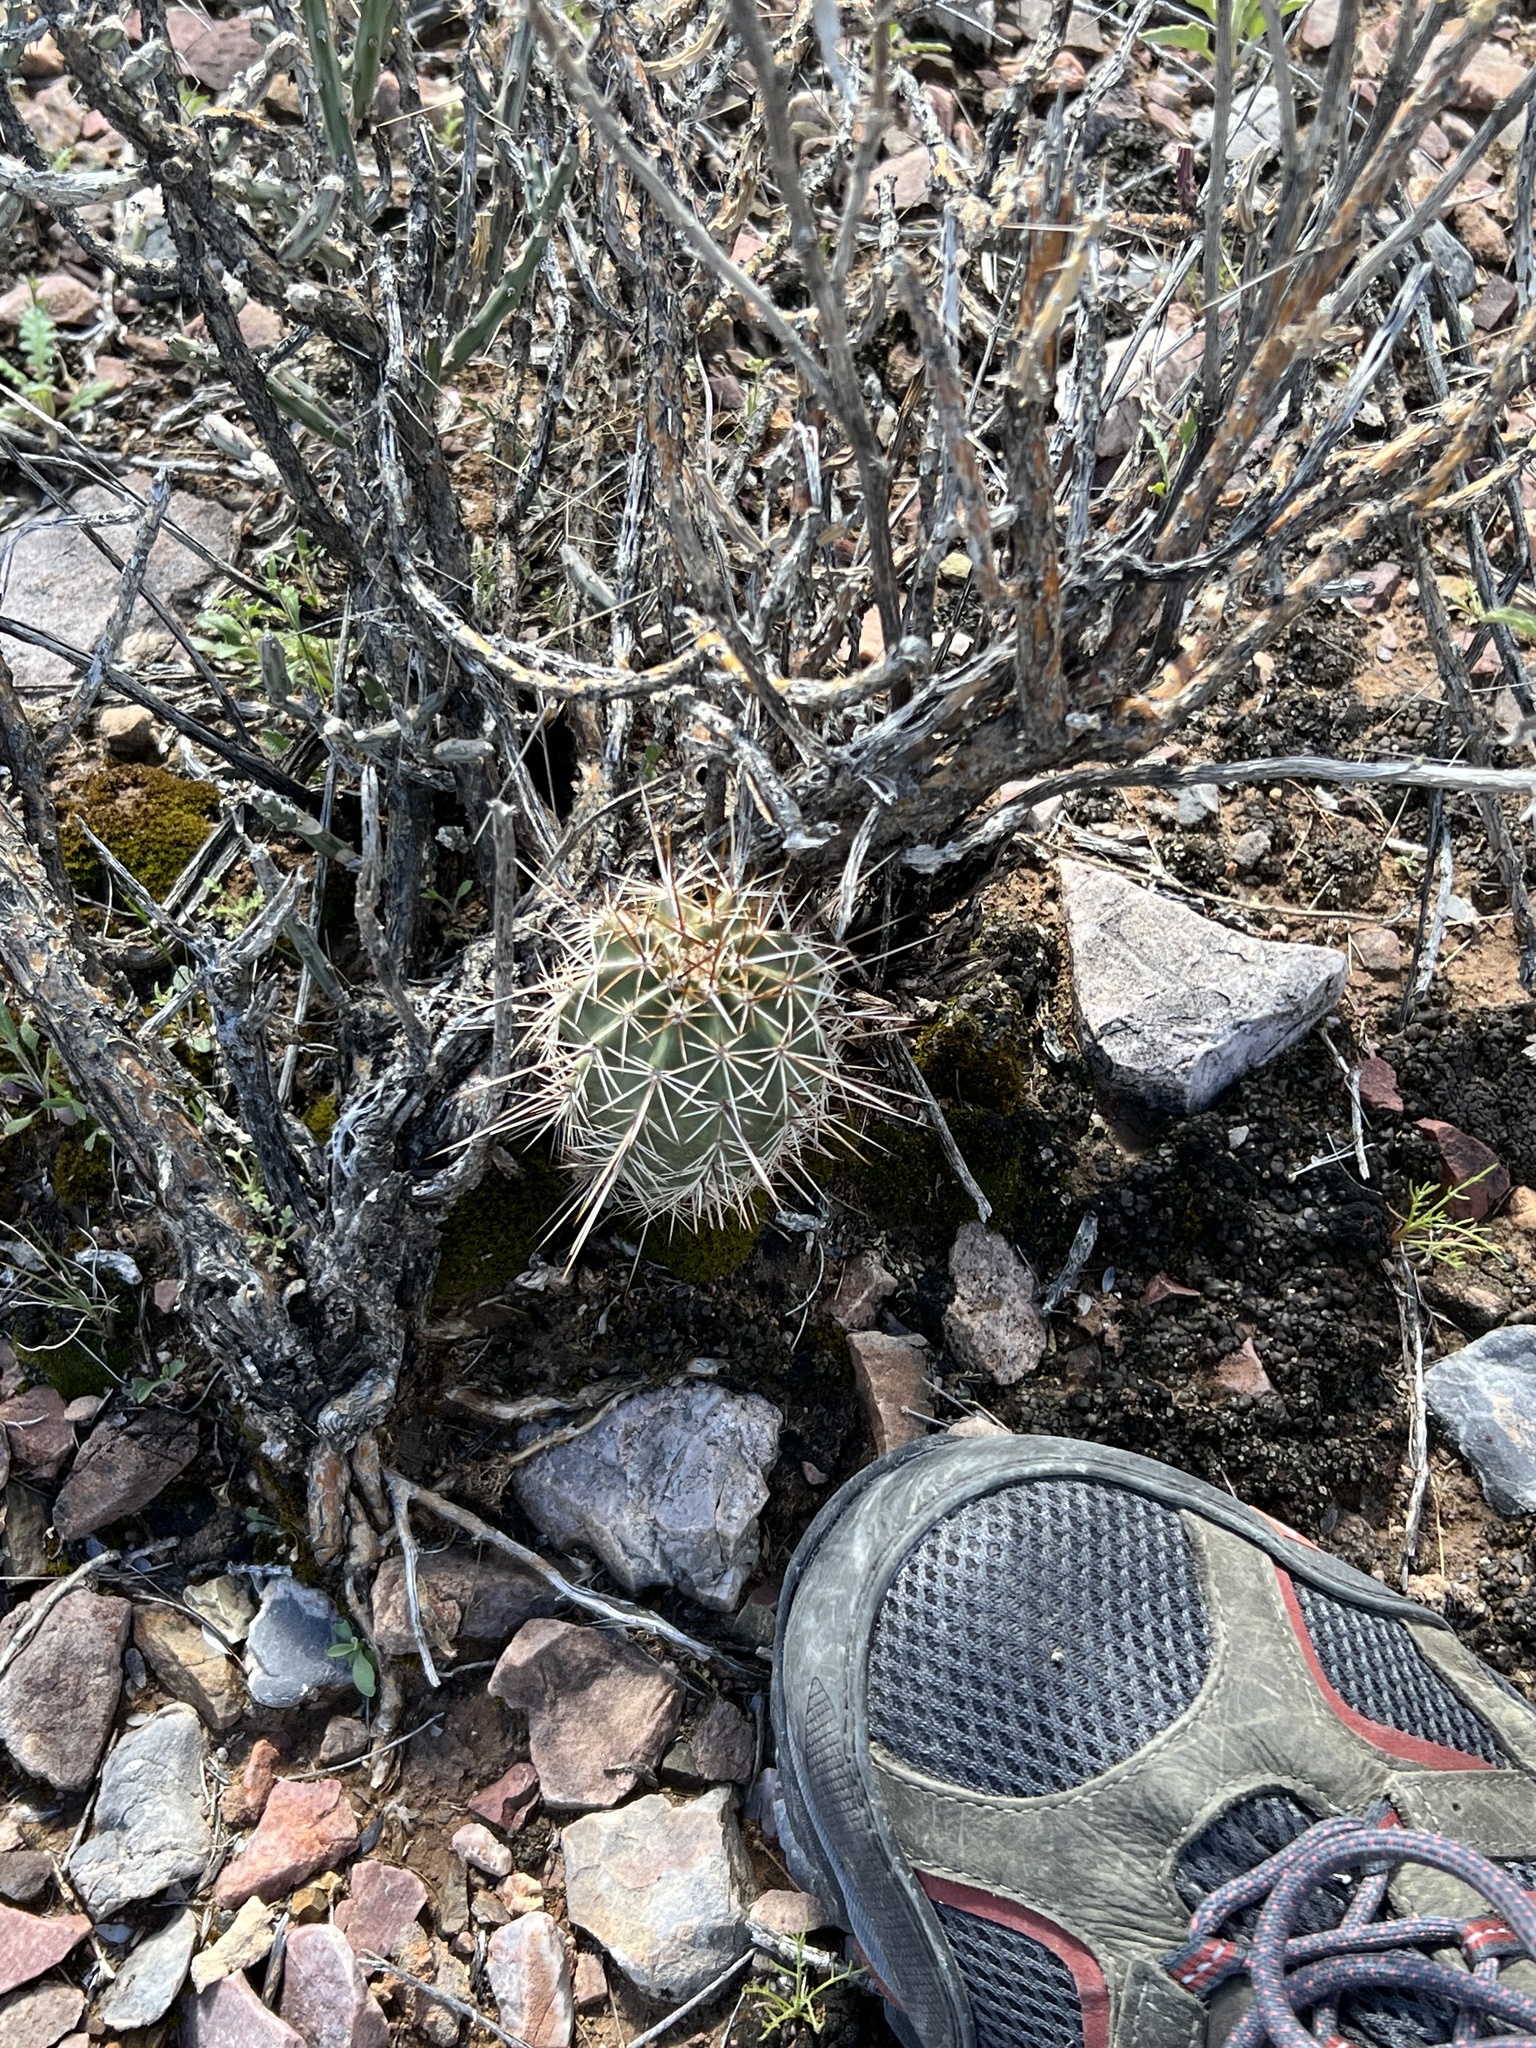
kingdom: Plantae
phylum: Tracheophyta
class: Magnoliopsida
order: Caryophyllales
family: Cactaceae
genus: Echinocereus
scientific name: Echinocereus fasciculatus
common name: Bundle hedgehog
